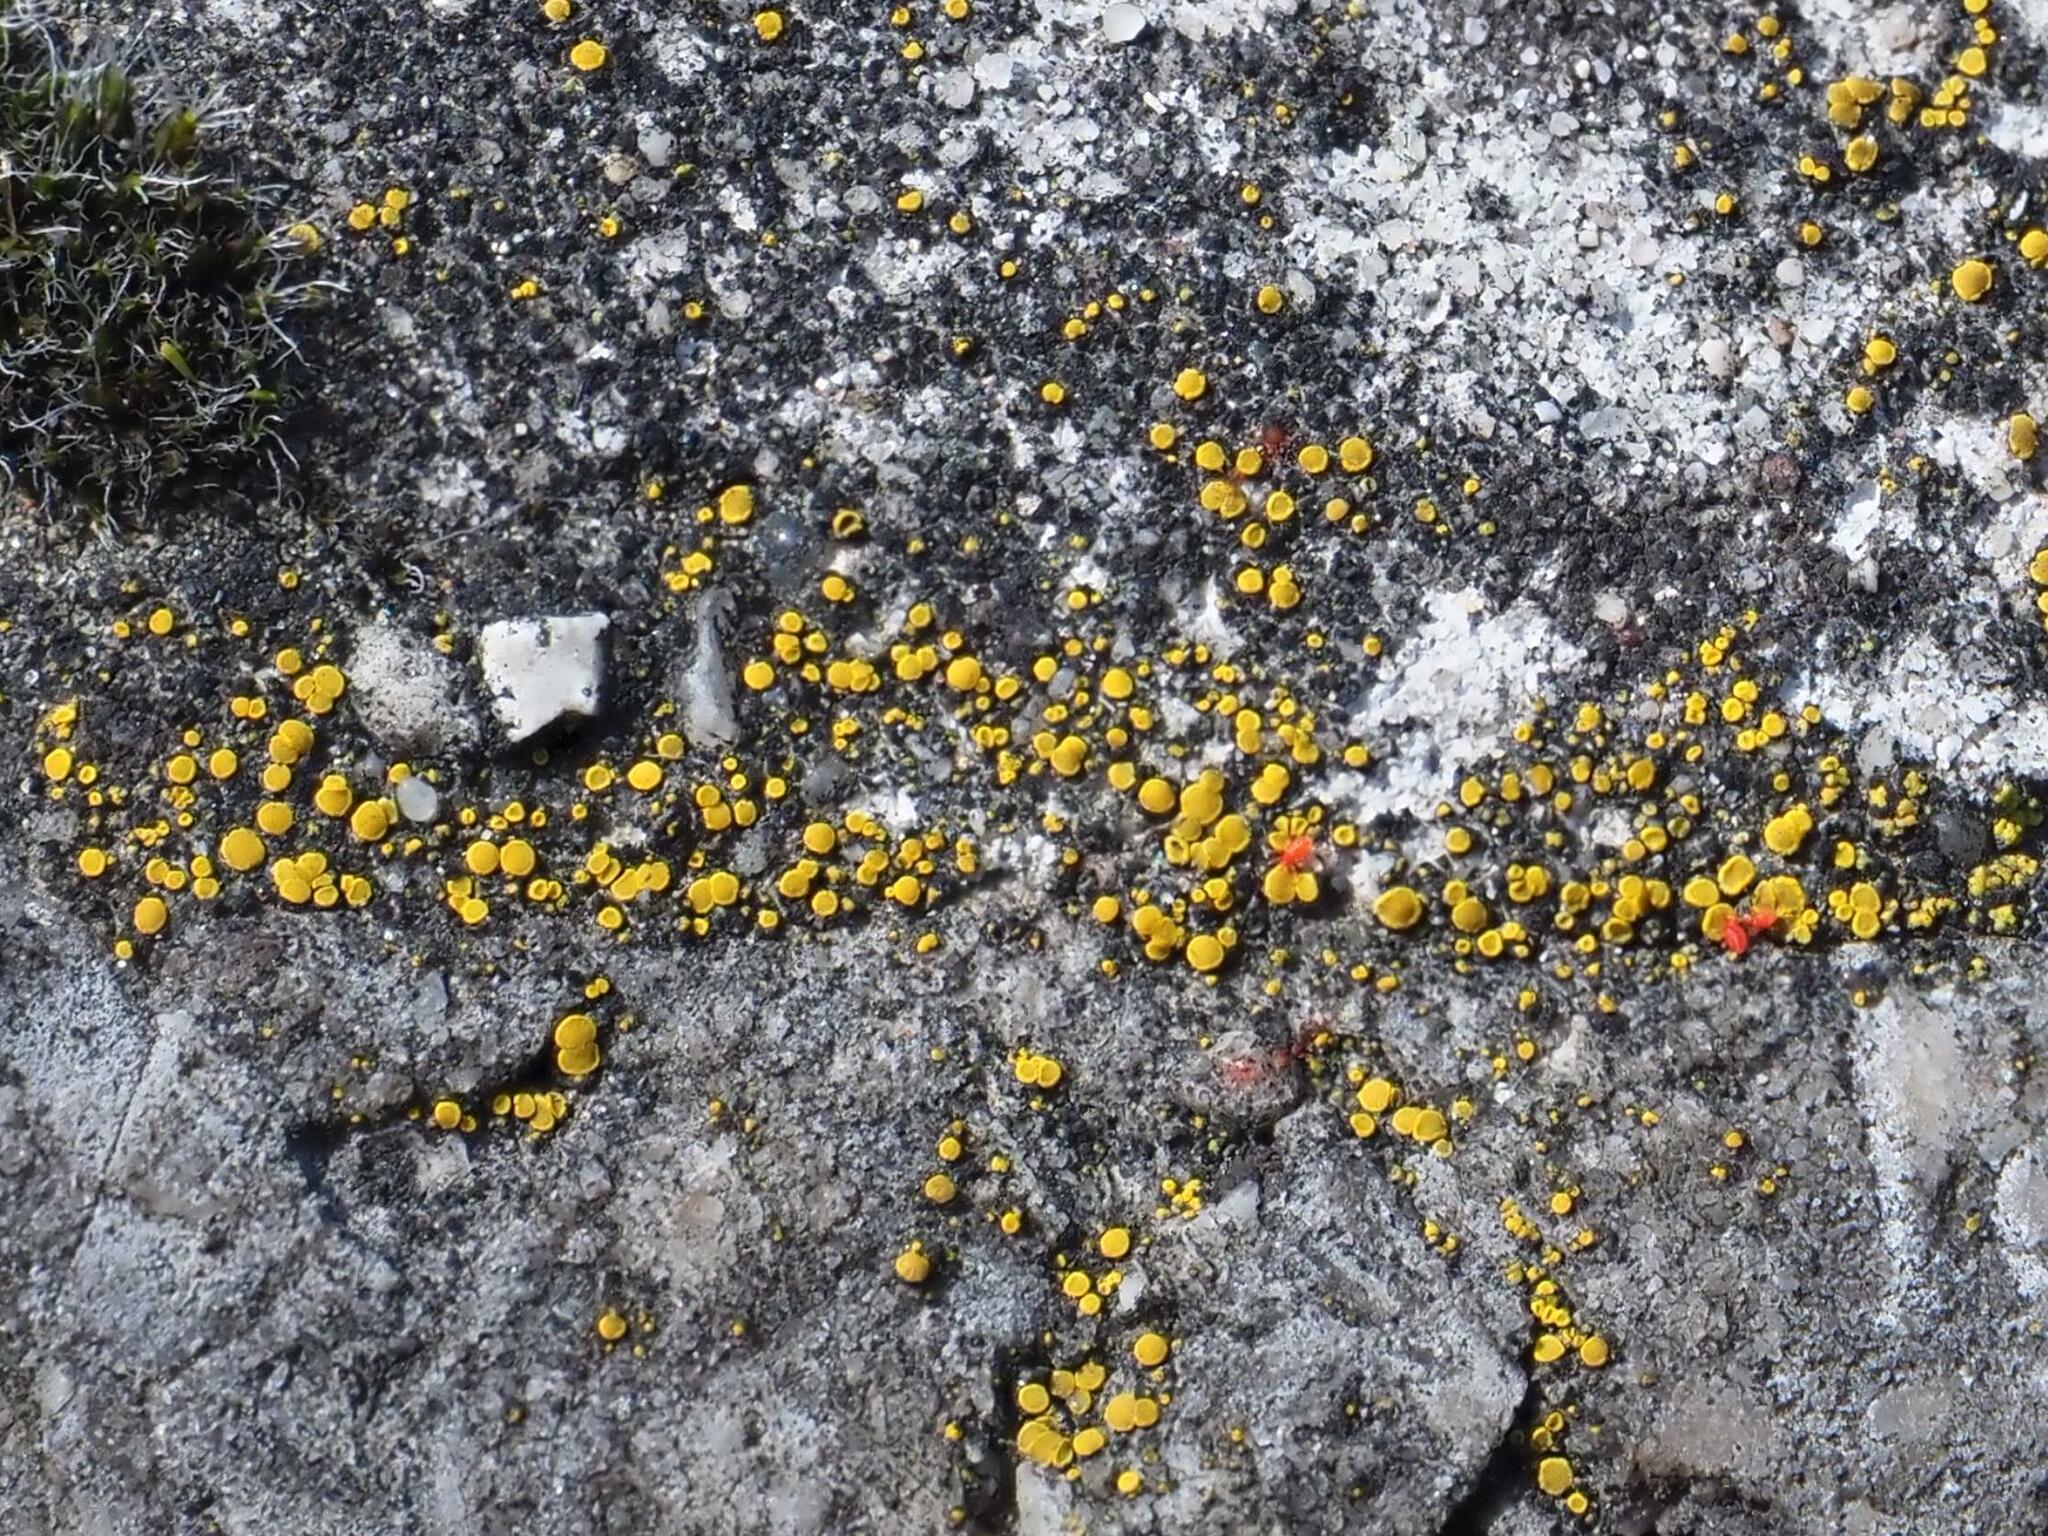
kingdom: Fungi
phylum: Ascomycota
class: Candelariomycetes
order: Candelariales
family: Candelariaceae
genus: Candelariella
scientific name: Candelariella aurella
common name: Hidden goldspeck lichen
